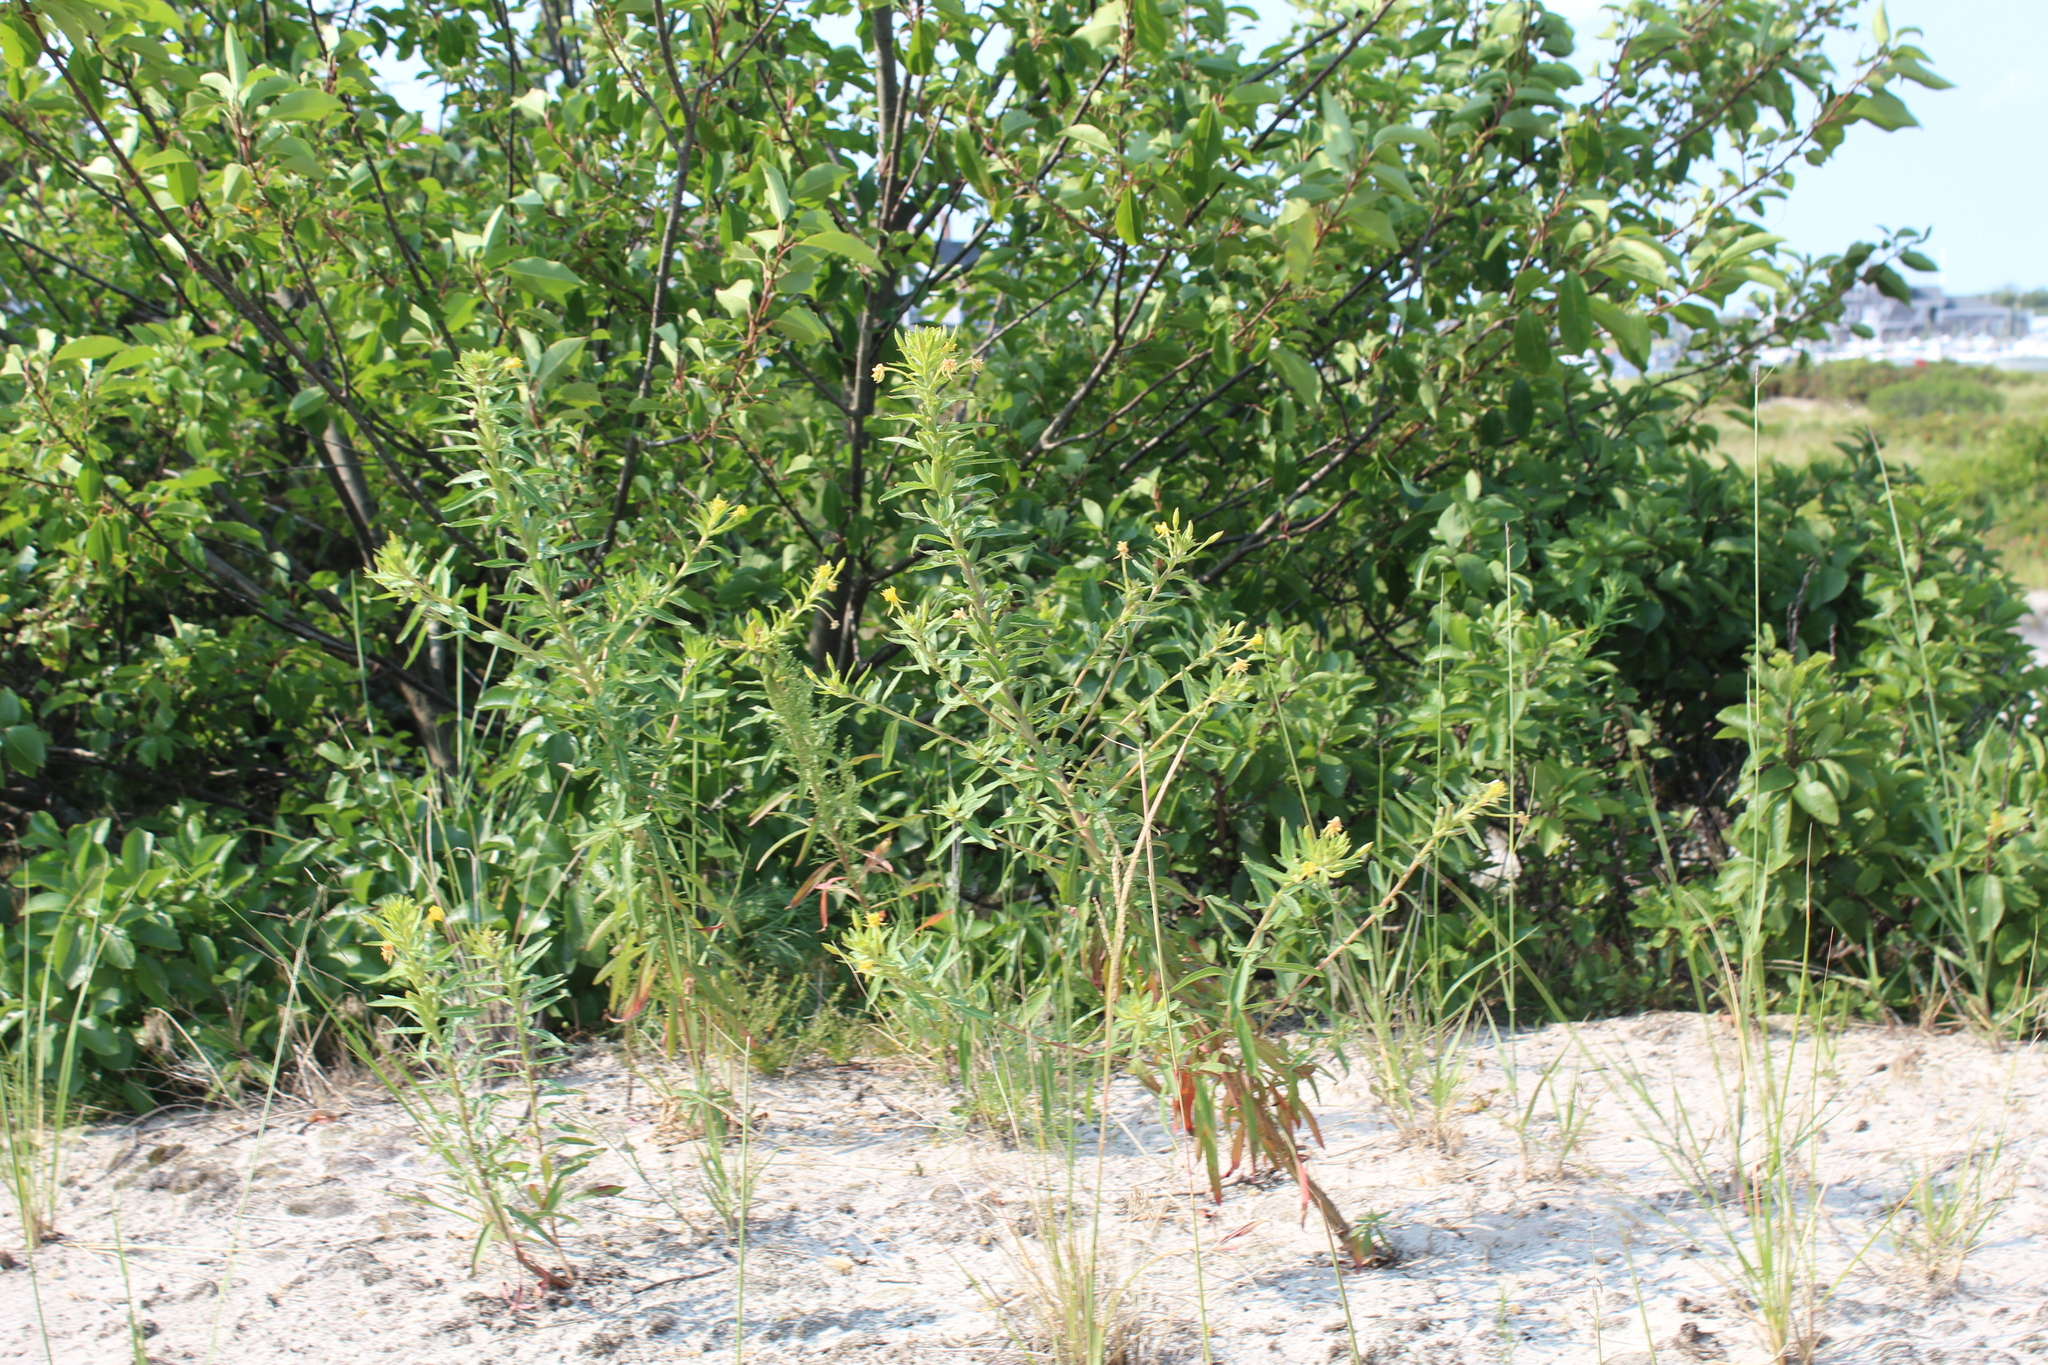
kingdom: Plantae
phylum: Tracheophyta
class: Magnoliopsida
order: Myrtales
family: Onagraceae
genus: Oenothera
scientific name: Oenothera biennis
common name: Common evening-primrose
